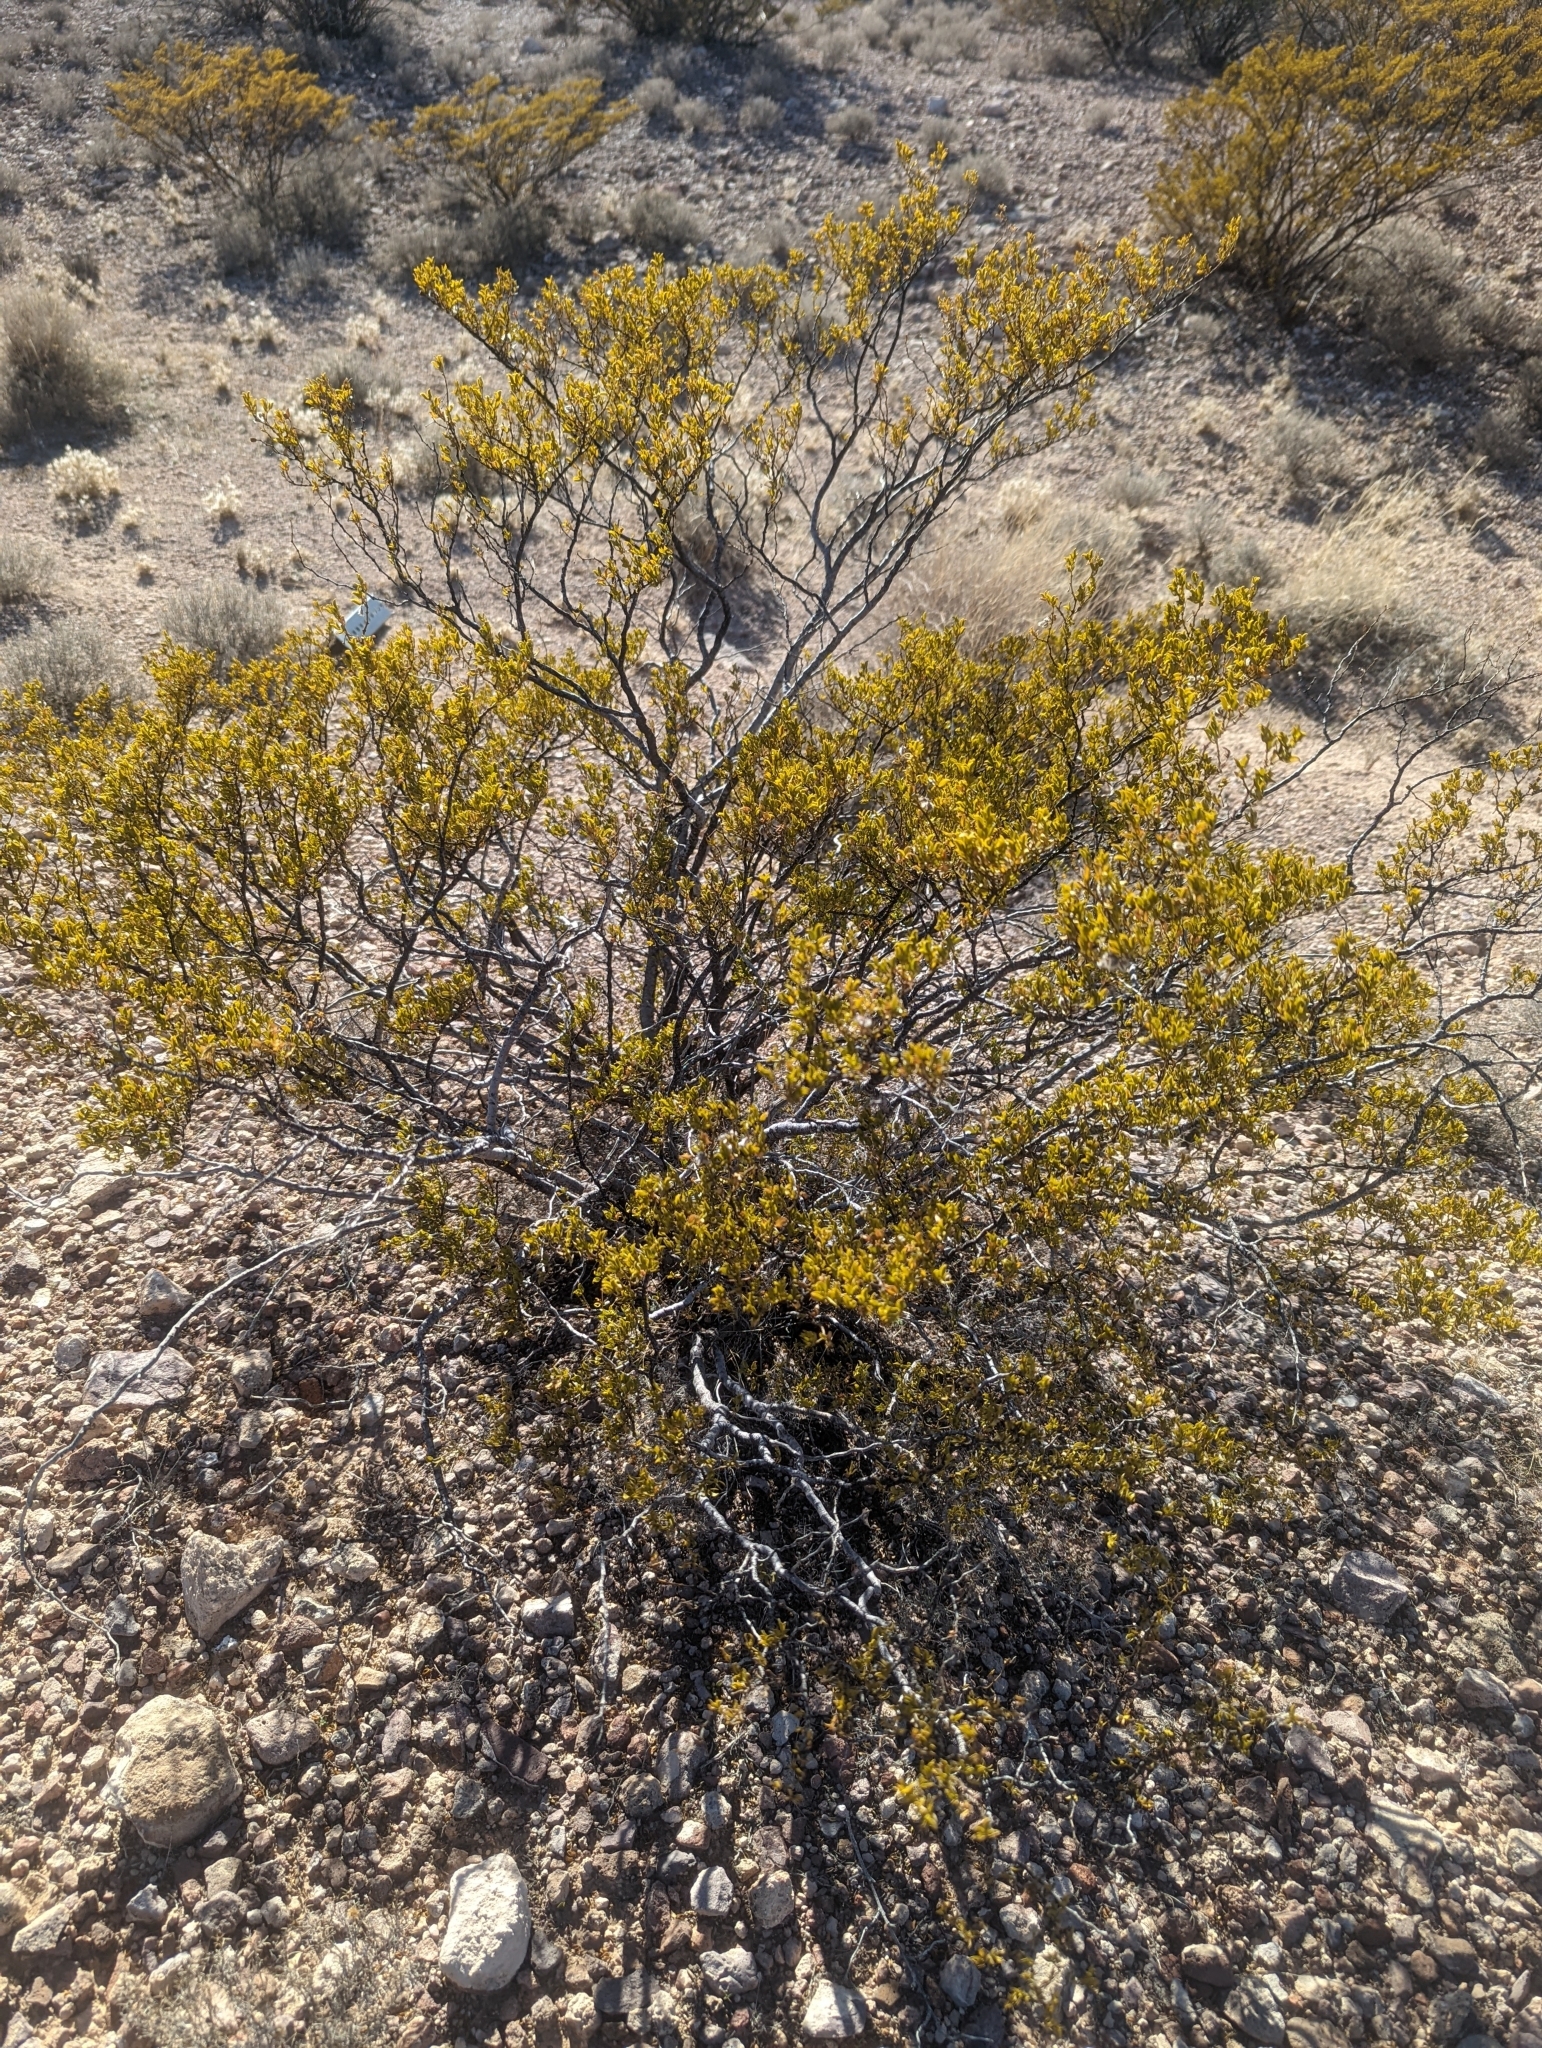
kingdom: Plantae
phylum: Tracheophyta
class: Magnoliopsida
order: Zygophyllales
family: Zygophyllaceae
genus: Larrea
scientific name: Larrea tridentata
